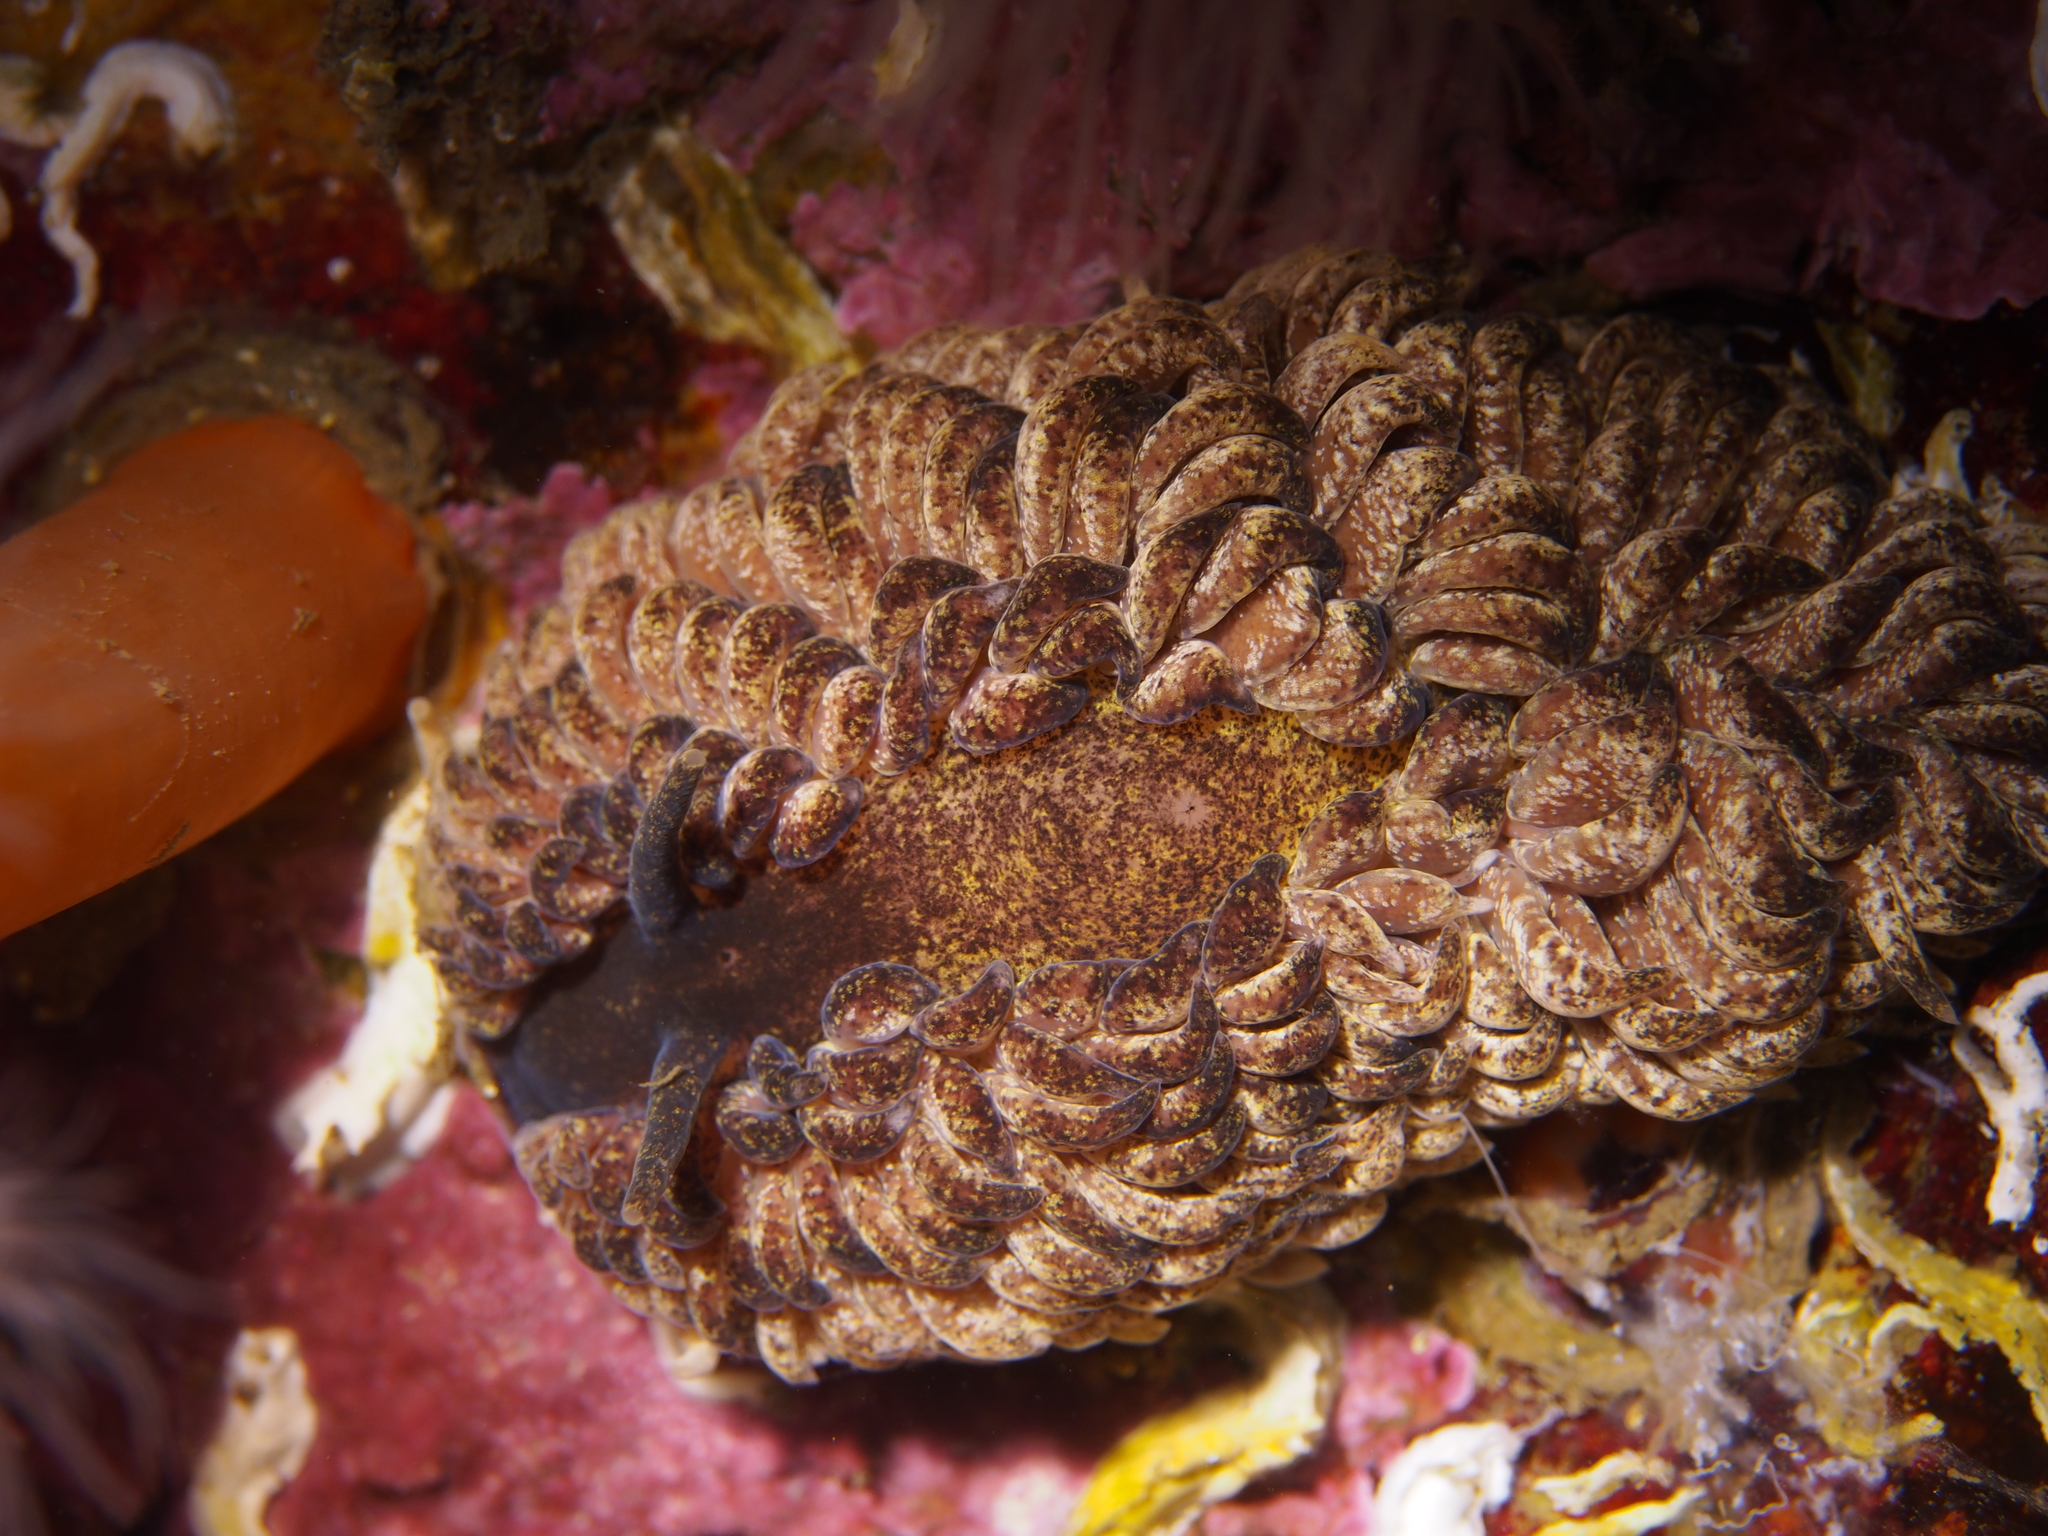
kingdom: Animalia
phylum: Mollusca
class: Gastropoda
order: Nudibranchia
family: Aeolidiidae
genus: Aeolidia
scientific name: Aeolidia papillosa
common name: Common grey sea slug
